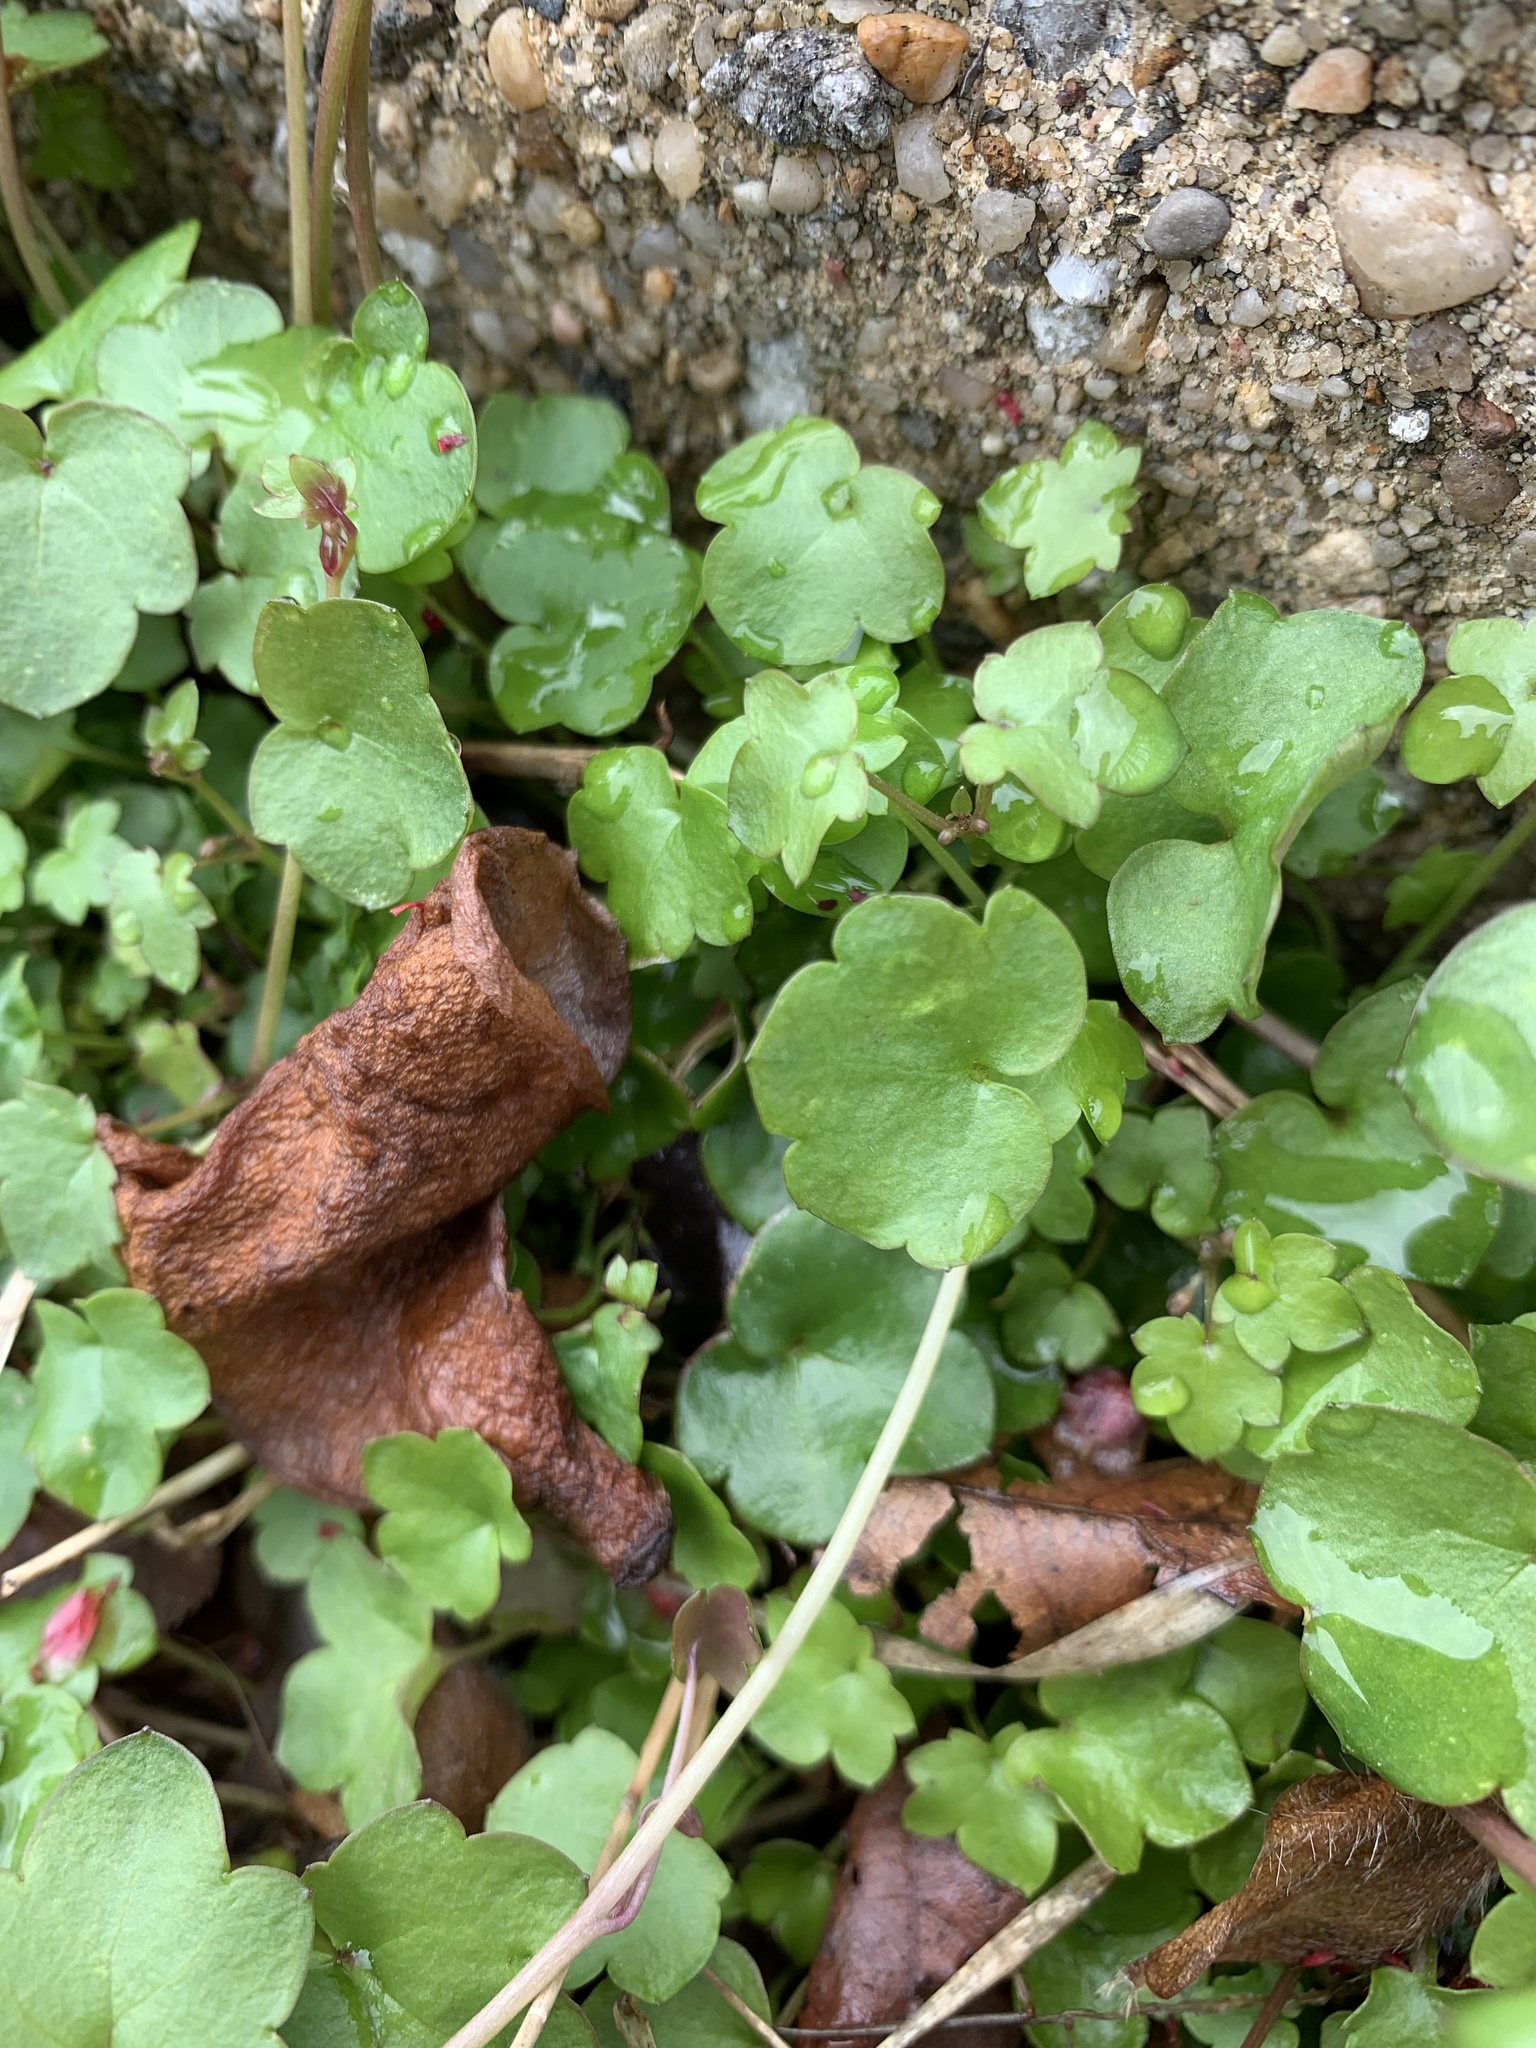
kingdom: Plantae
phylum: Tracheophyta
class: Magnoliopsida
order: Lamiales
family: Plantaginaceae
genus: Cymbalaria
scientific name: Cymbalaria muralis
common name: Ivy-leaved toadflax
